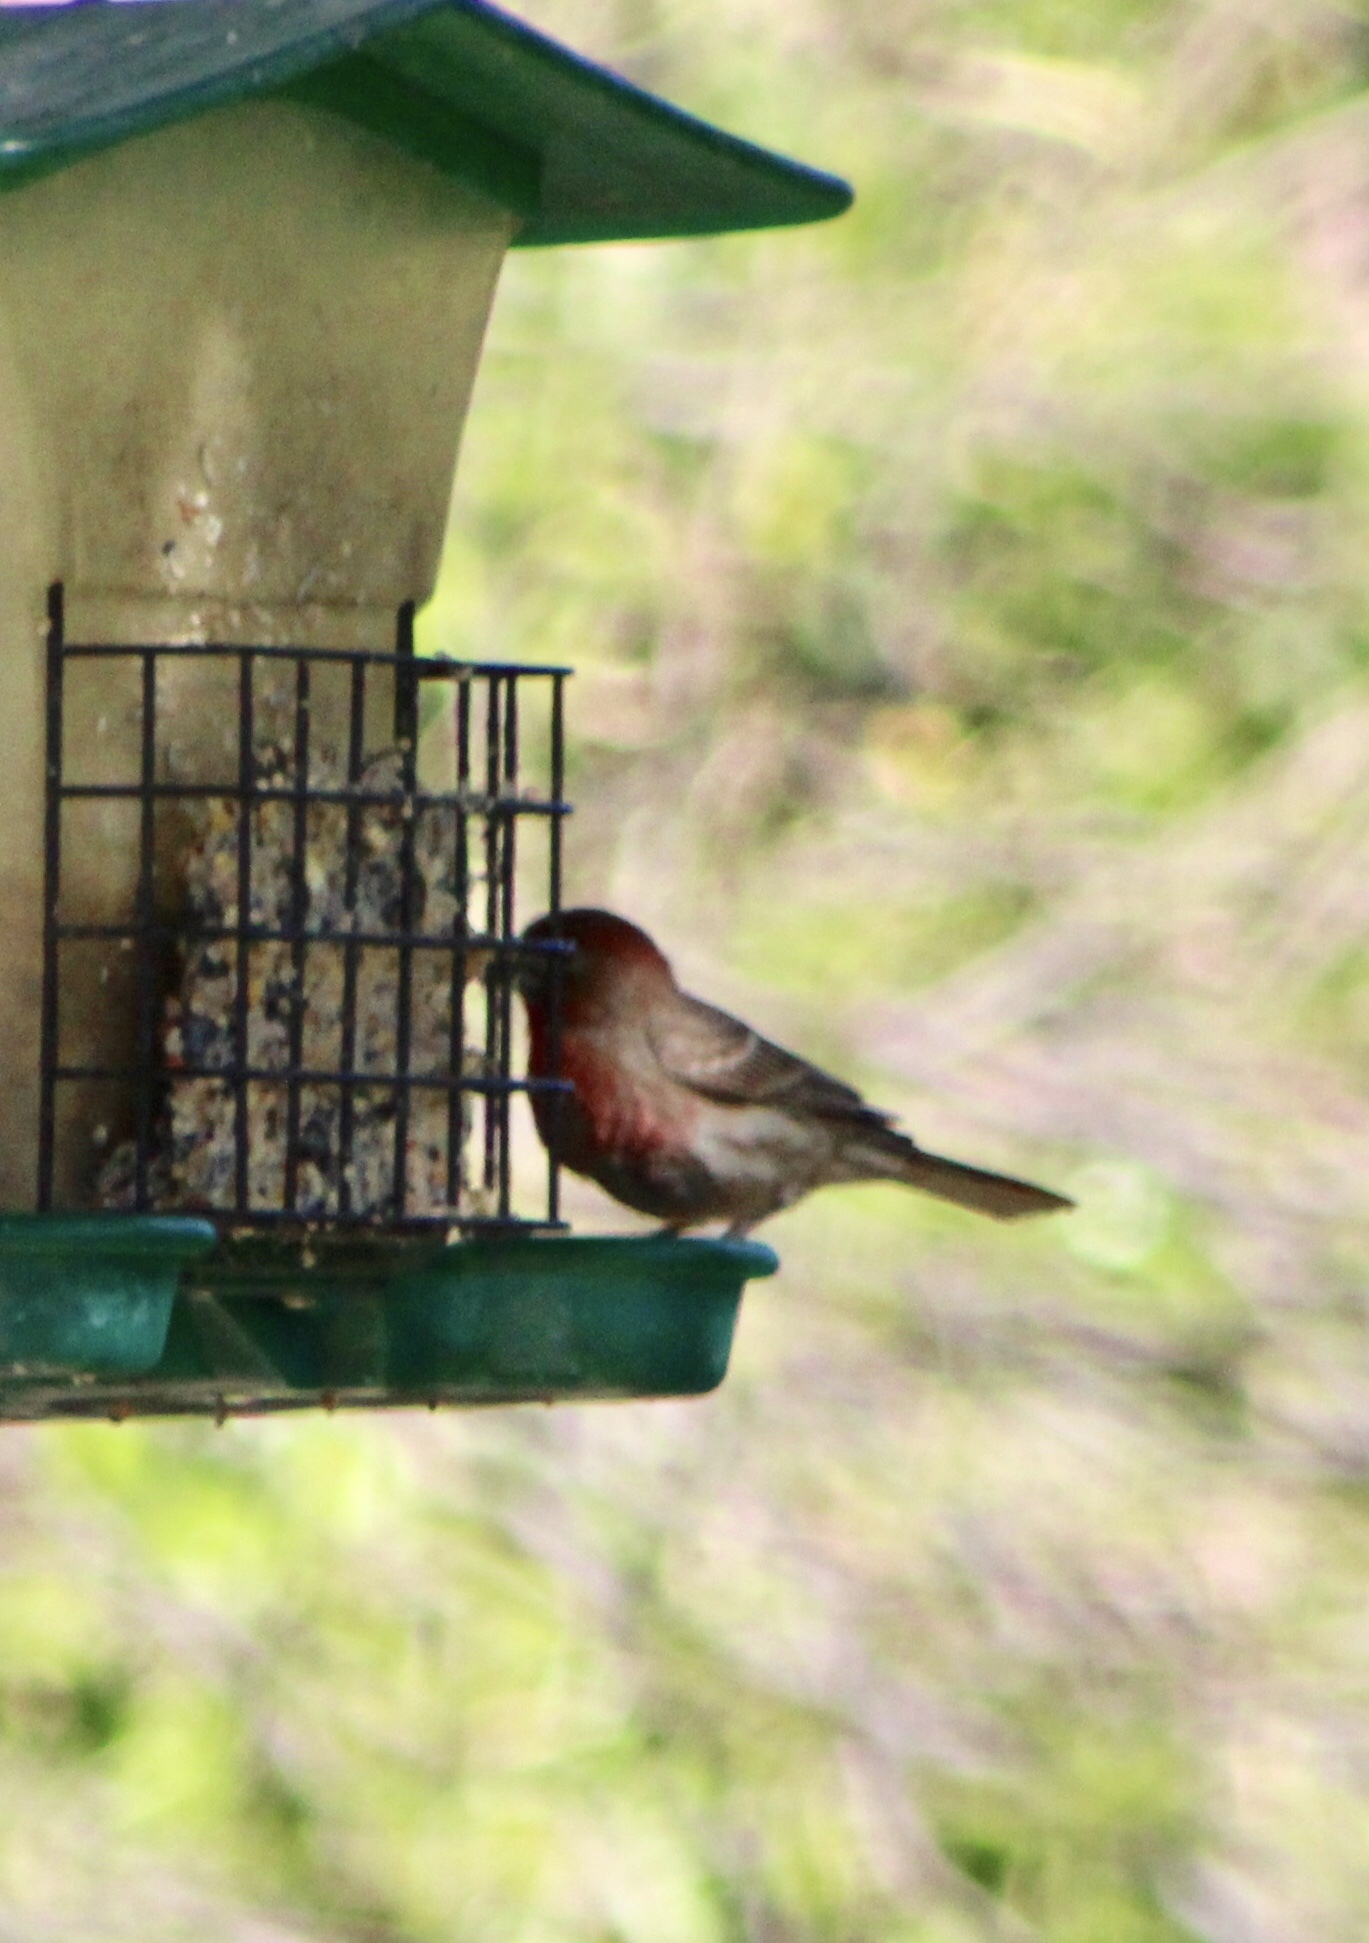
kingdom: Animalia
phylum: Chordata
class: Aves
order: Passeriformes
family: Fringillidae
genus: Haemorhous
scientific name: Haemorhous mexicanus
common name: House finch
